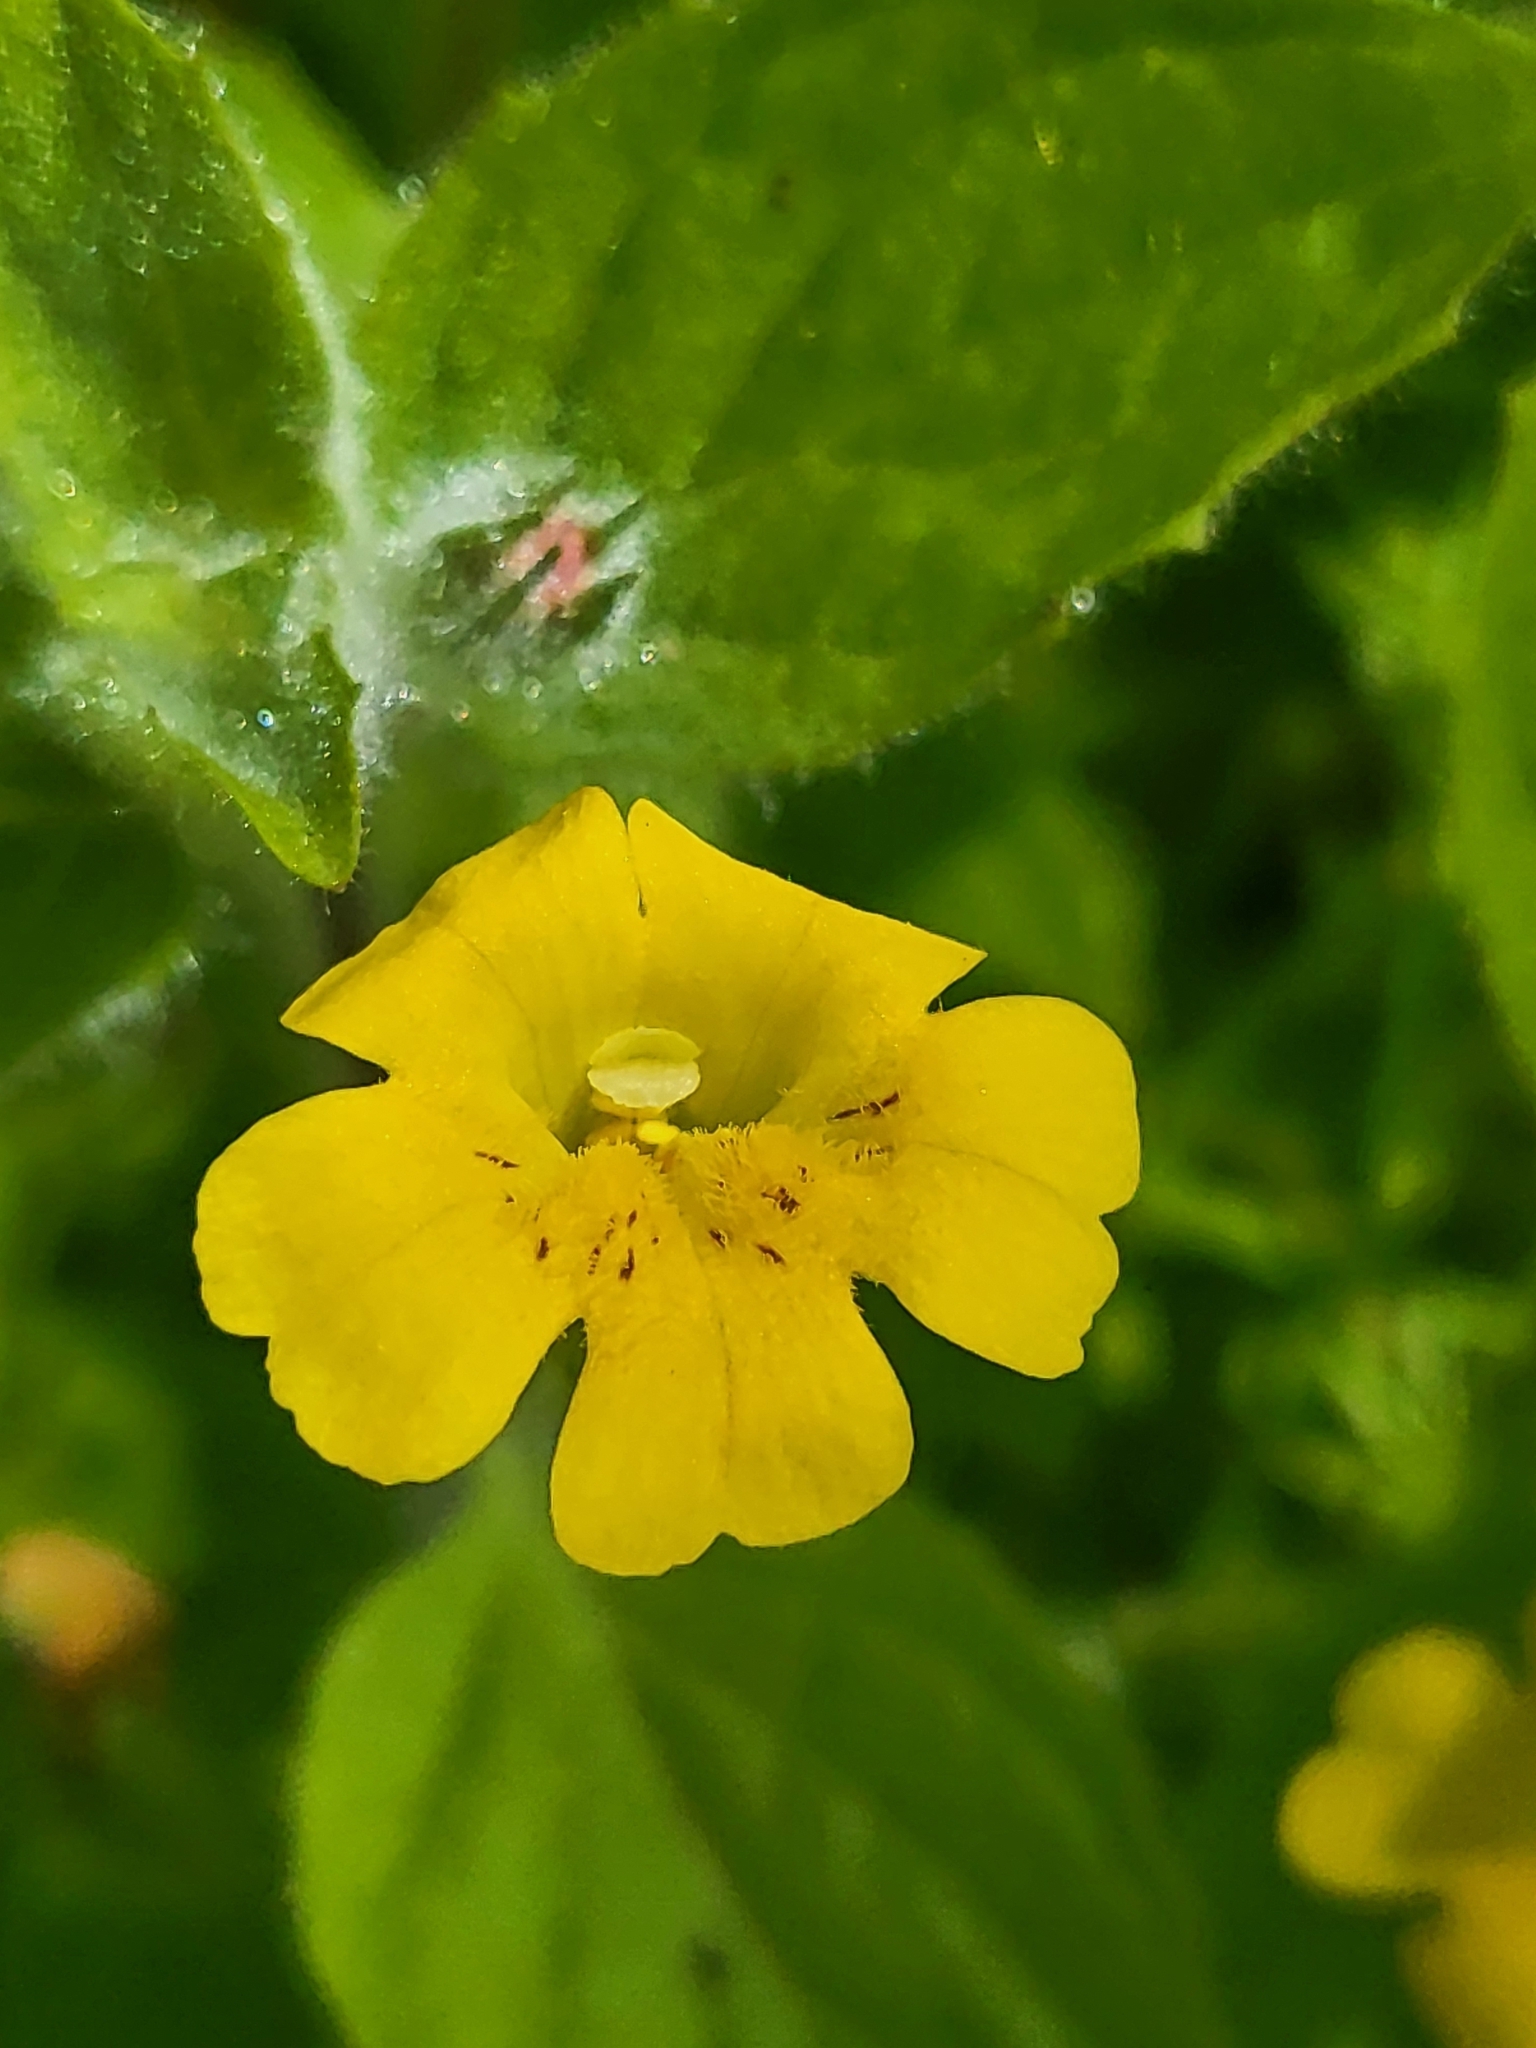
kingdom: Plantae
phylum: Tracheophyta
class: Magnoliopsida
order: Lamiales
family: Phrymaceae
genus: Erythranthe
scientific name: Erythranthe moschata
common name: Muskflower
